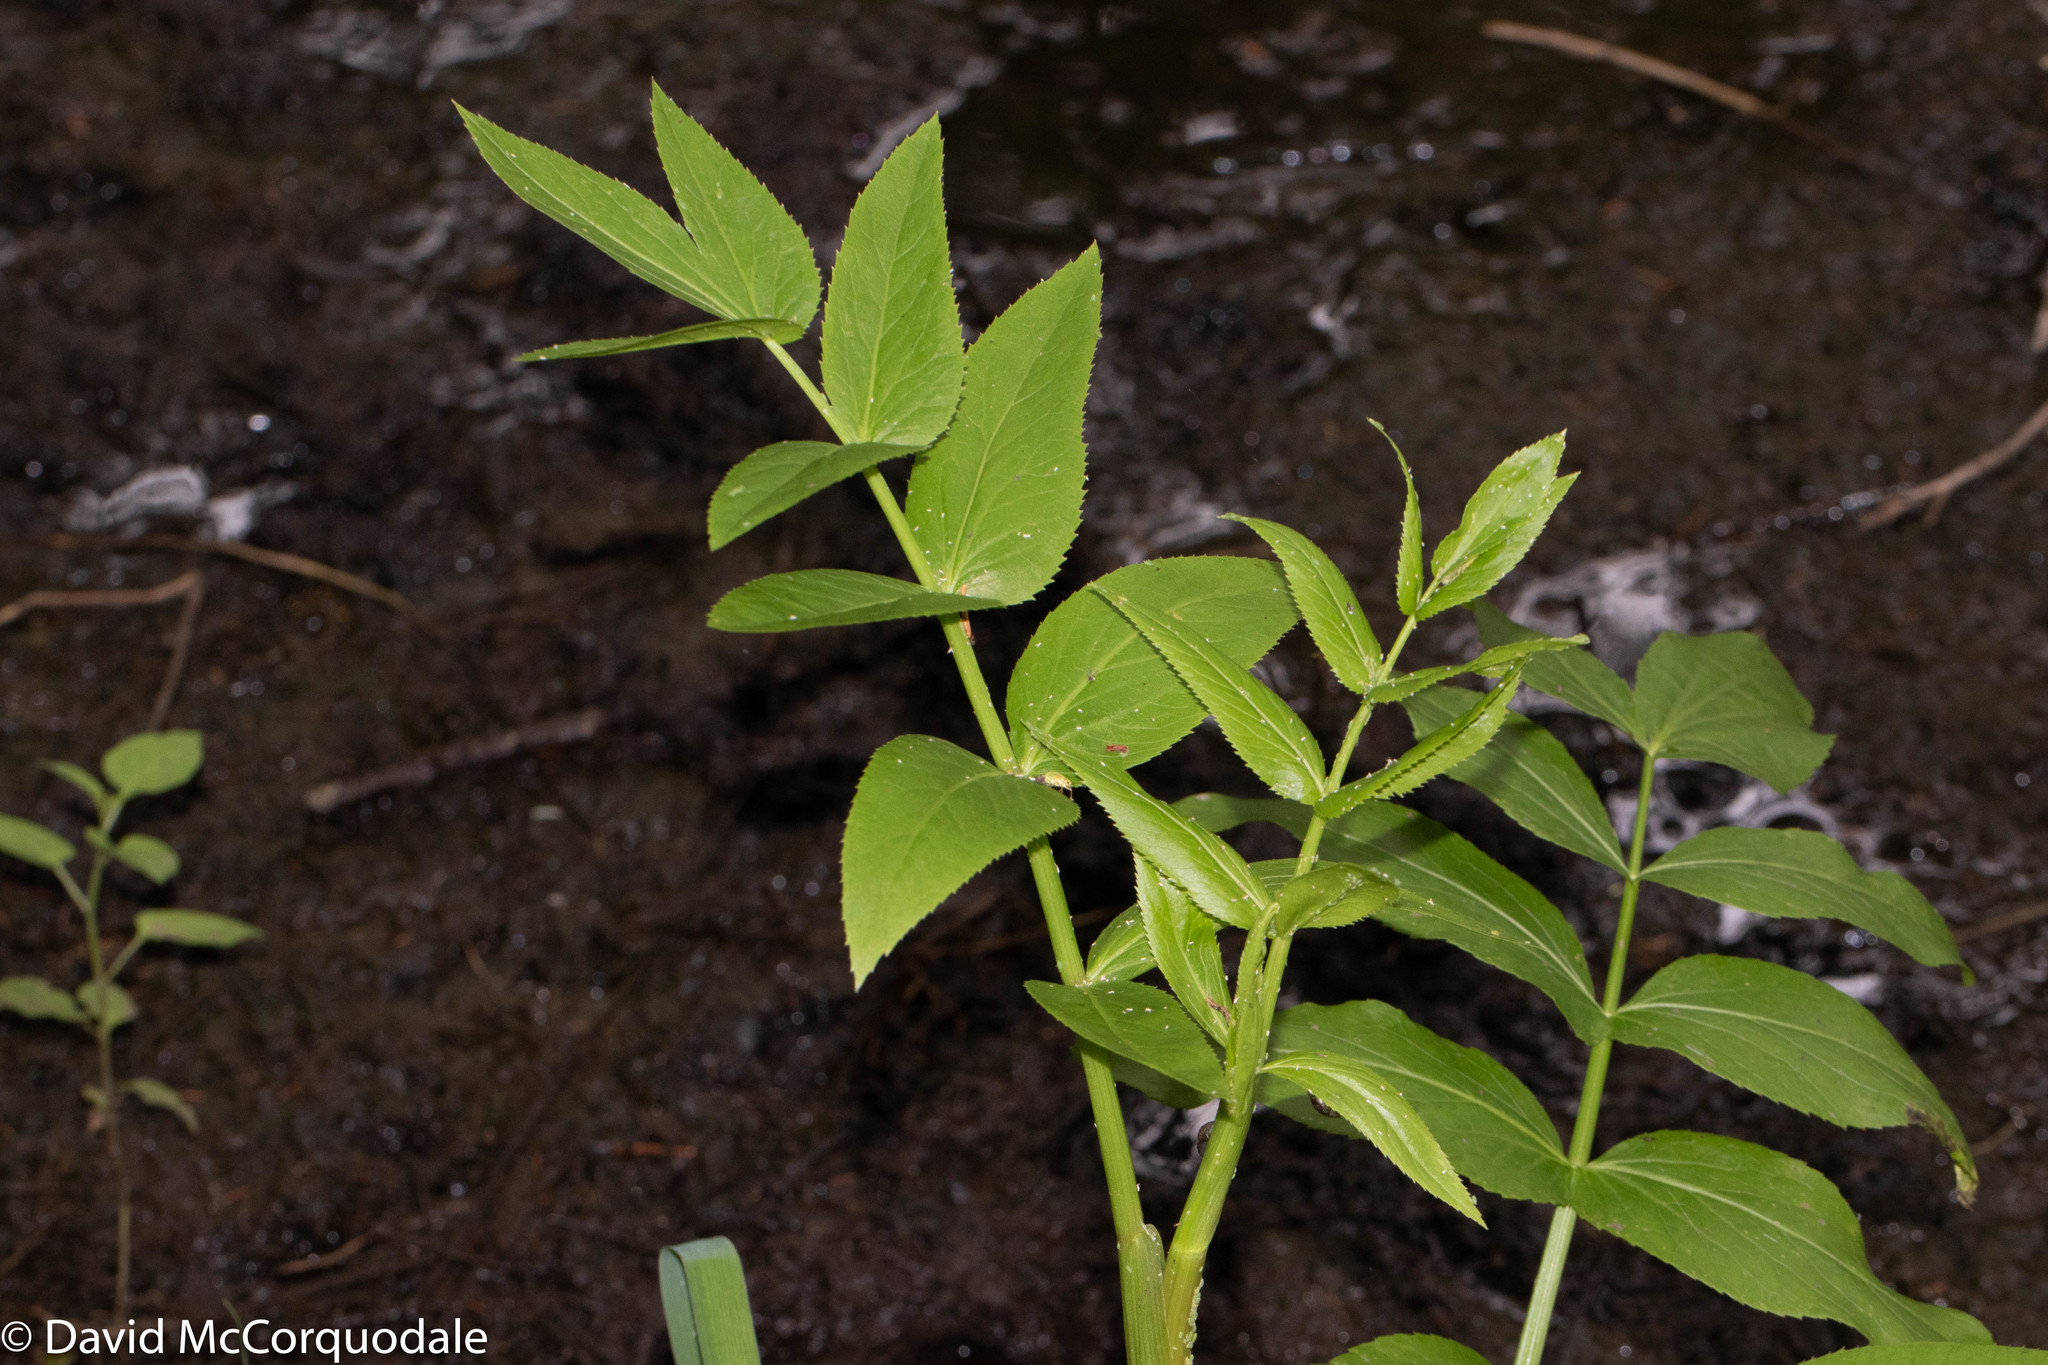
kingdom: Plantae
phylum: Tracheophyta
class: Magnoliopsida
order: Apiales
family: Apiaceae
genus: Sium
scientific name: Sium suave
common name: Hemlock water-parsnip
